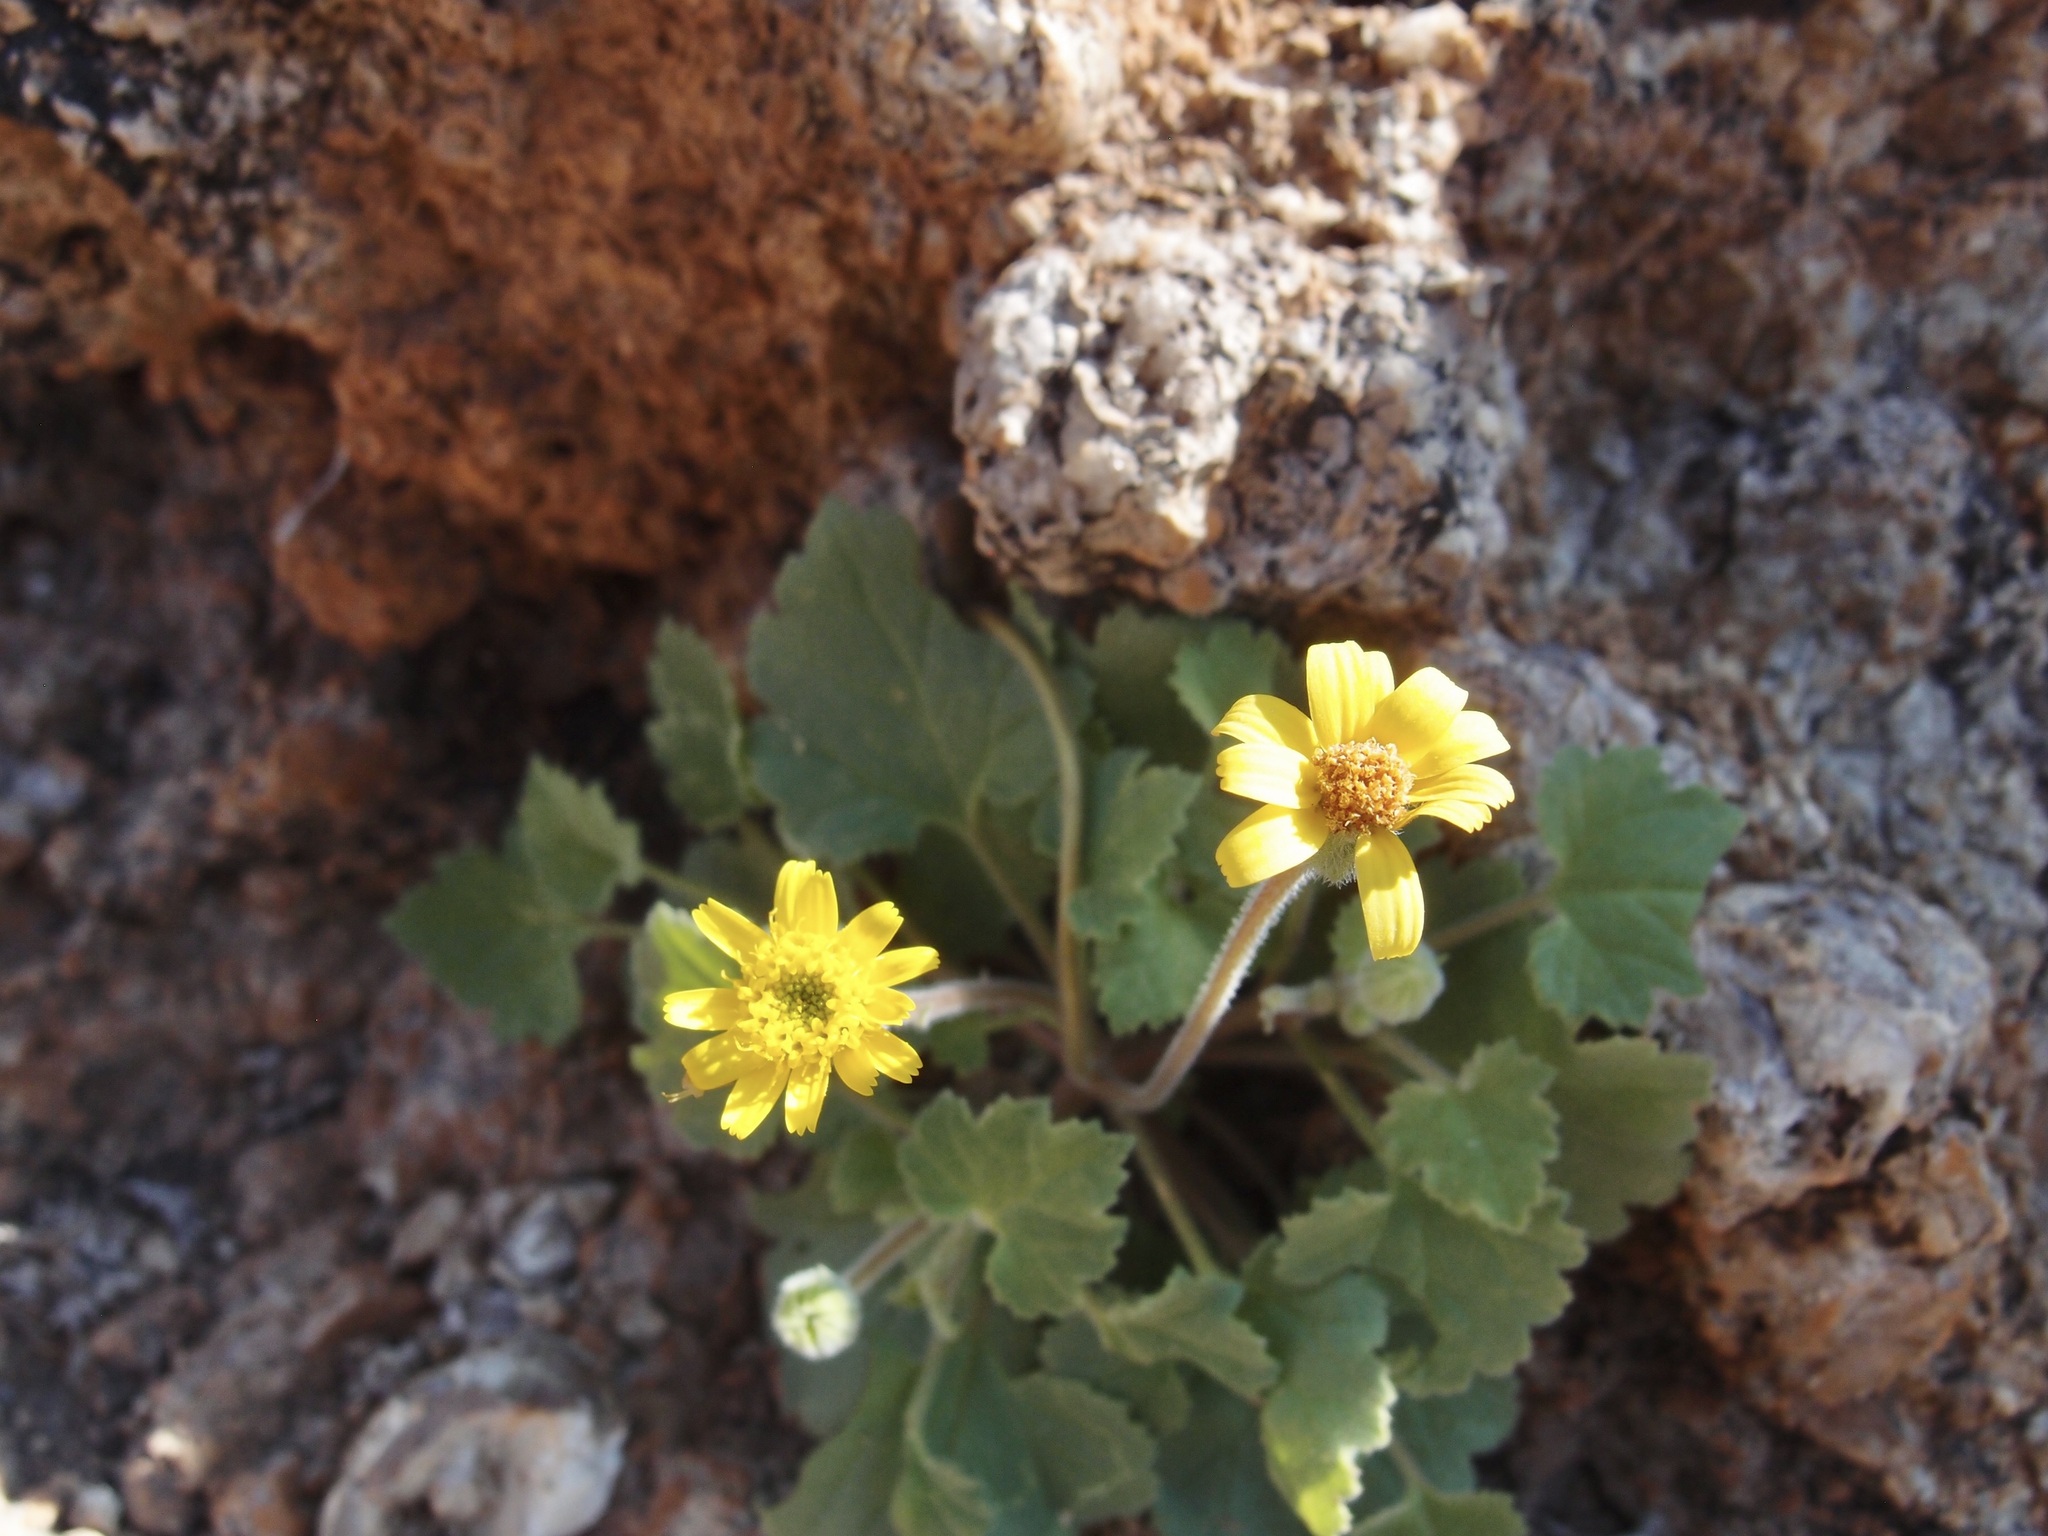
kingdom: Plantae
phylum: Tracheophyta
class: Magnoliopsida
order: Asterales
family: Asteraceae
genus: Laphamia
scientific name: Laphamia sanchezii
